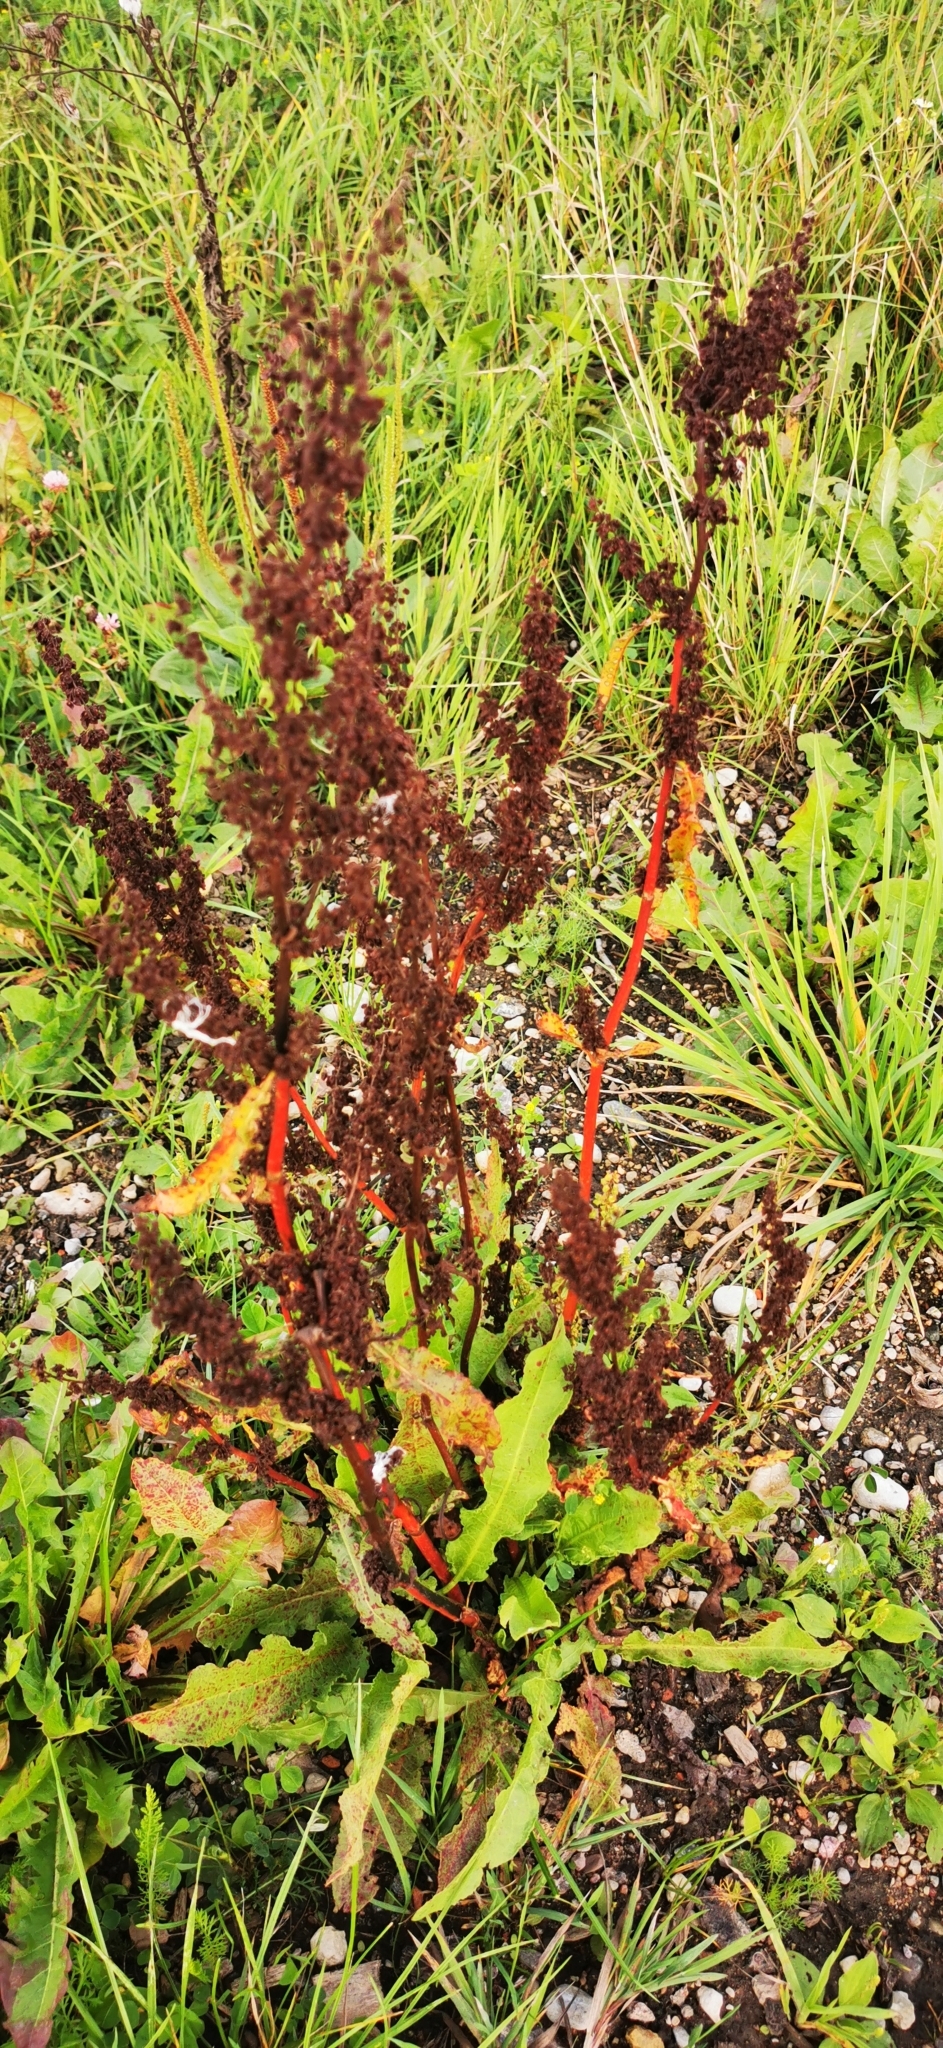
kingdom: Plantae
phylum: Tracheophyta
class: Magnoliopsida
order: Caryophyllales
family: Polygonaceae
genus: Rumex
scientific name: Rumex crispus
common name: Curled dock
